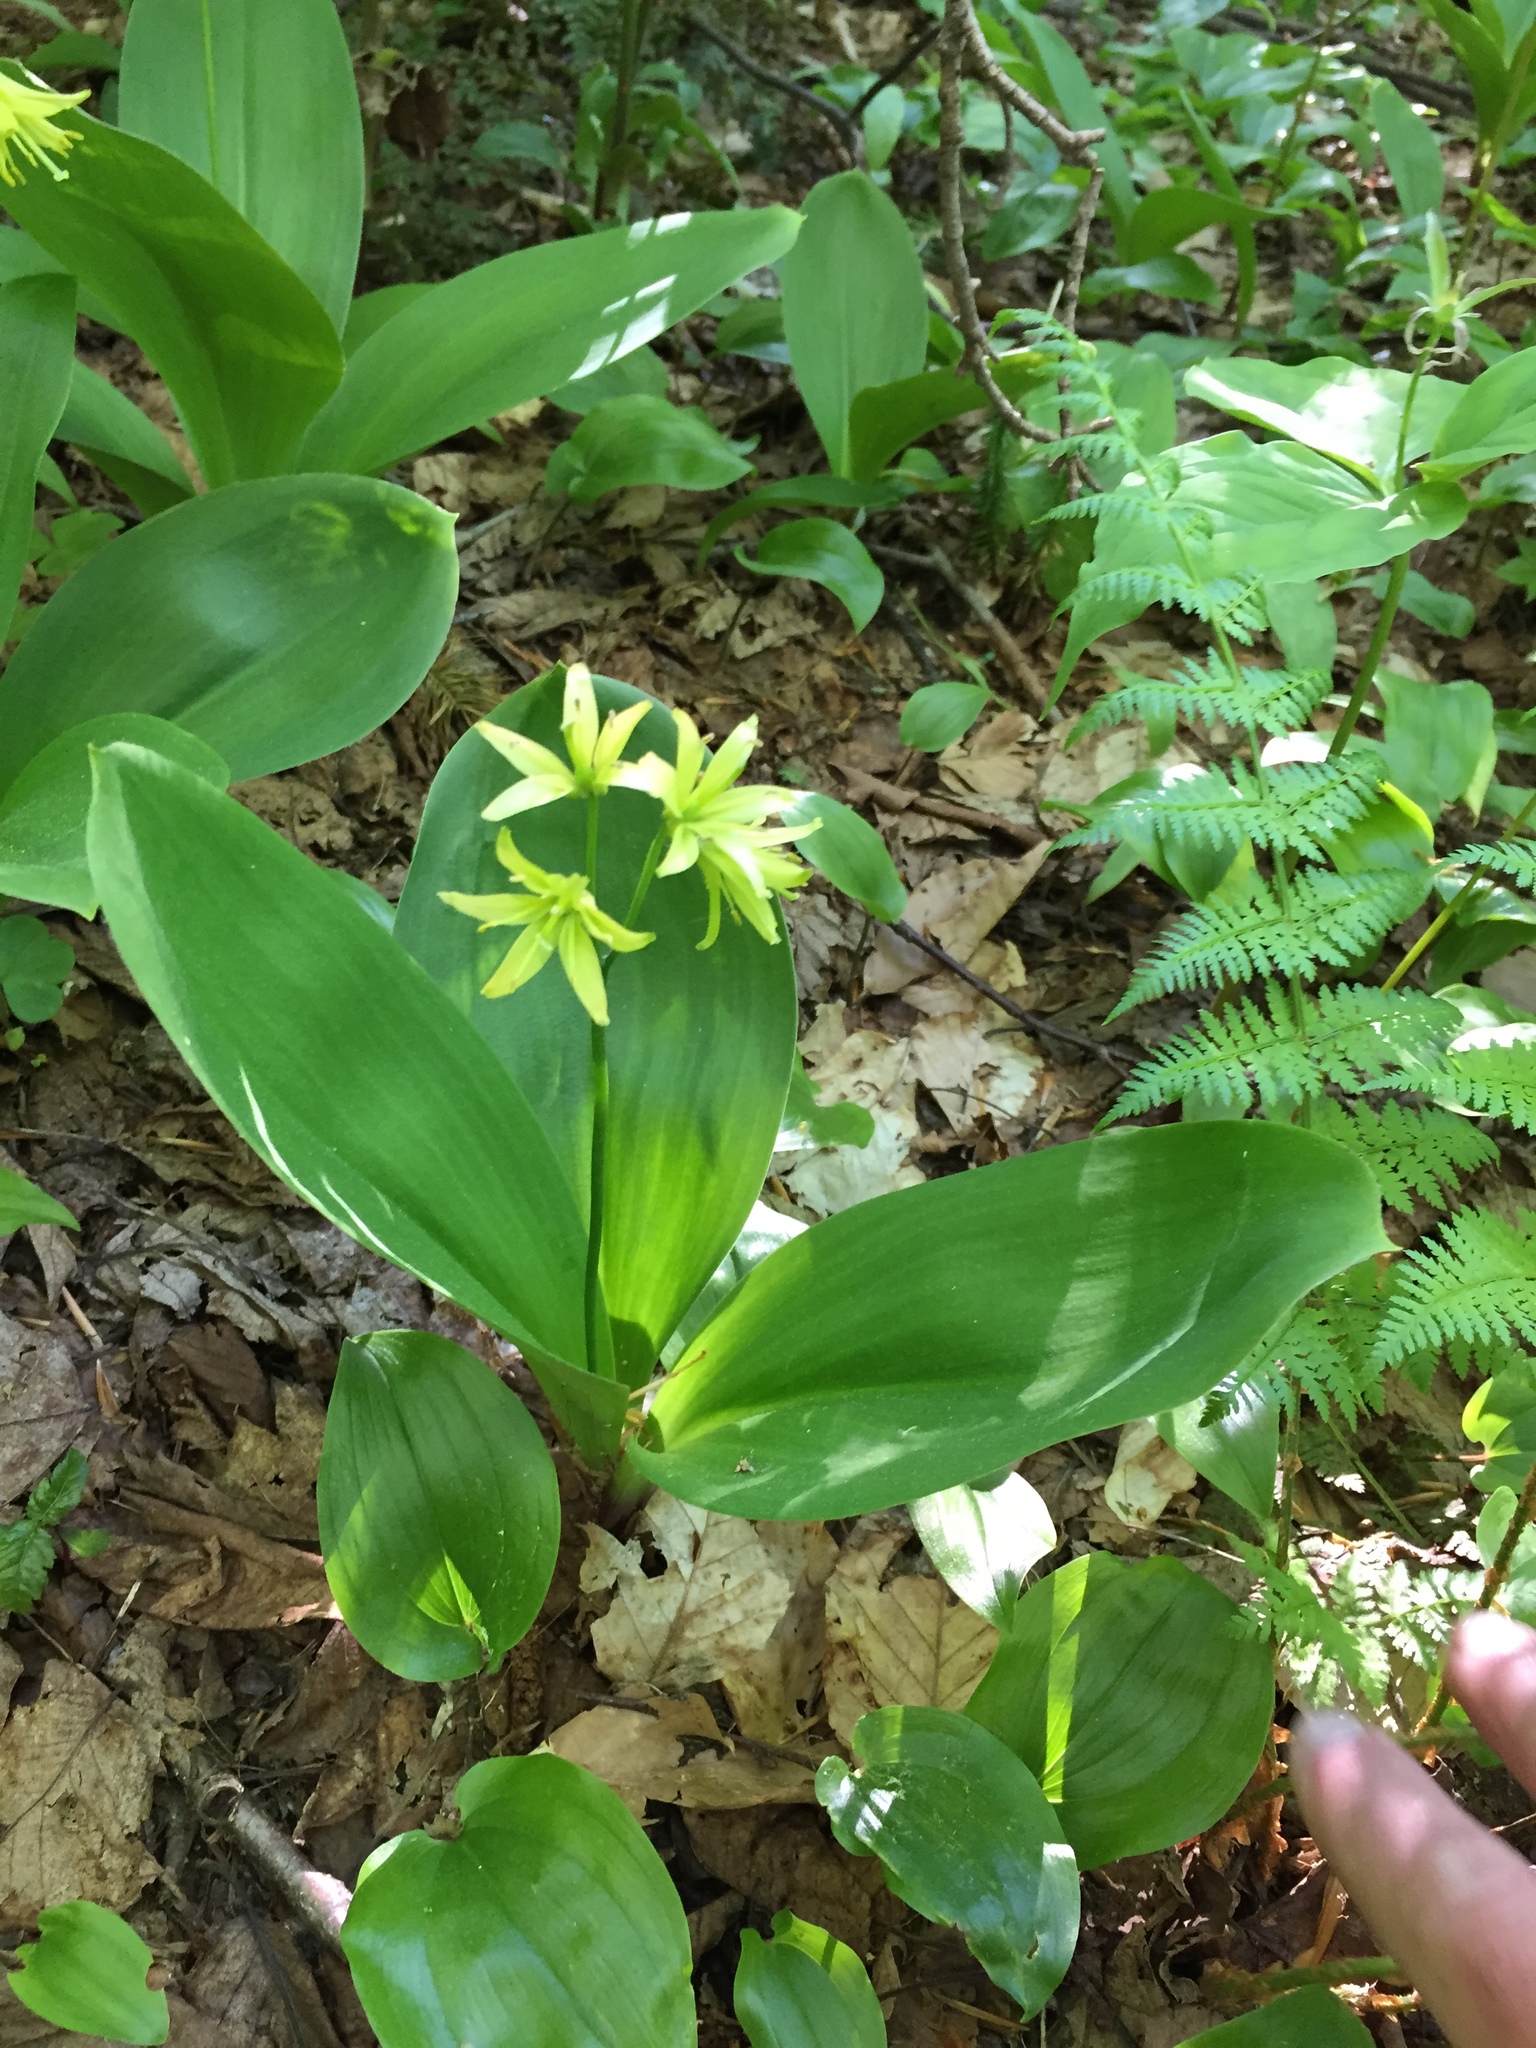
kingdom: Plantae
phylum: Tracheophyta
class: Liliopsida
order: Liliales
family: Liliaceae
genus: Clintonia
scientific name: Clintonia borealis
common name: Yellow clintonia
